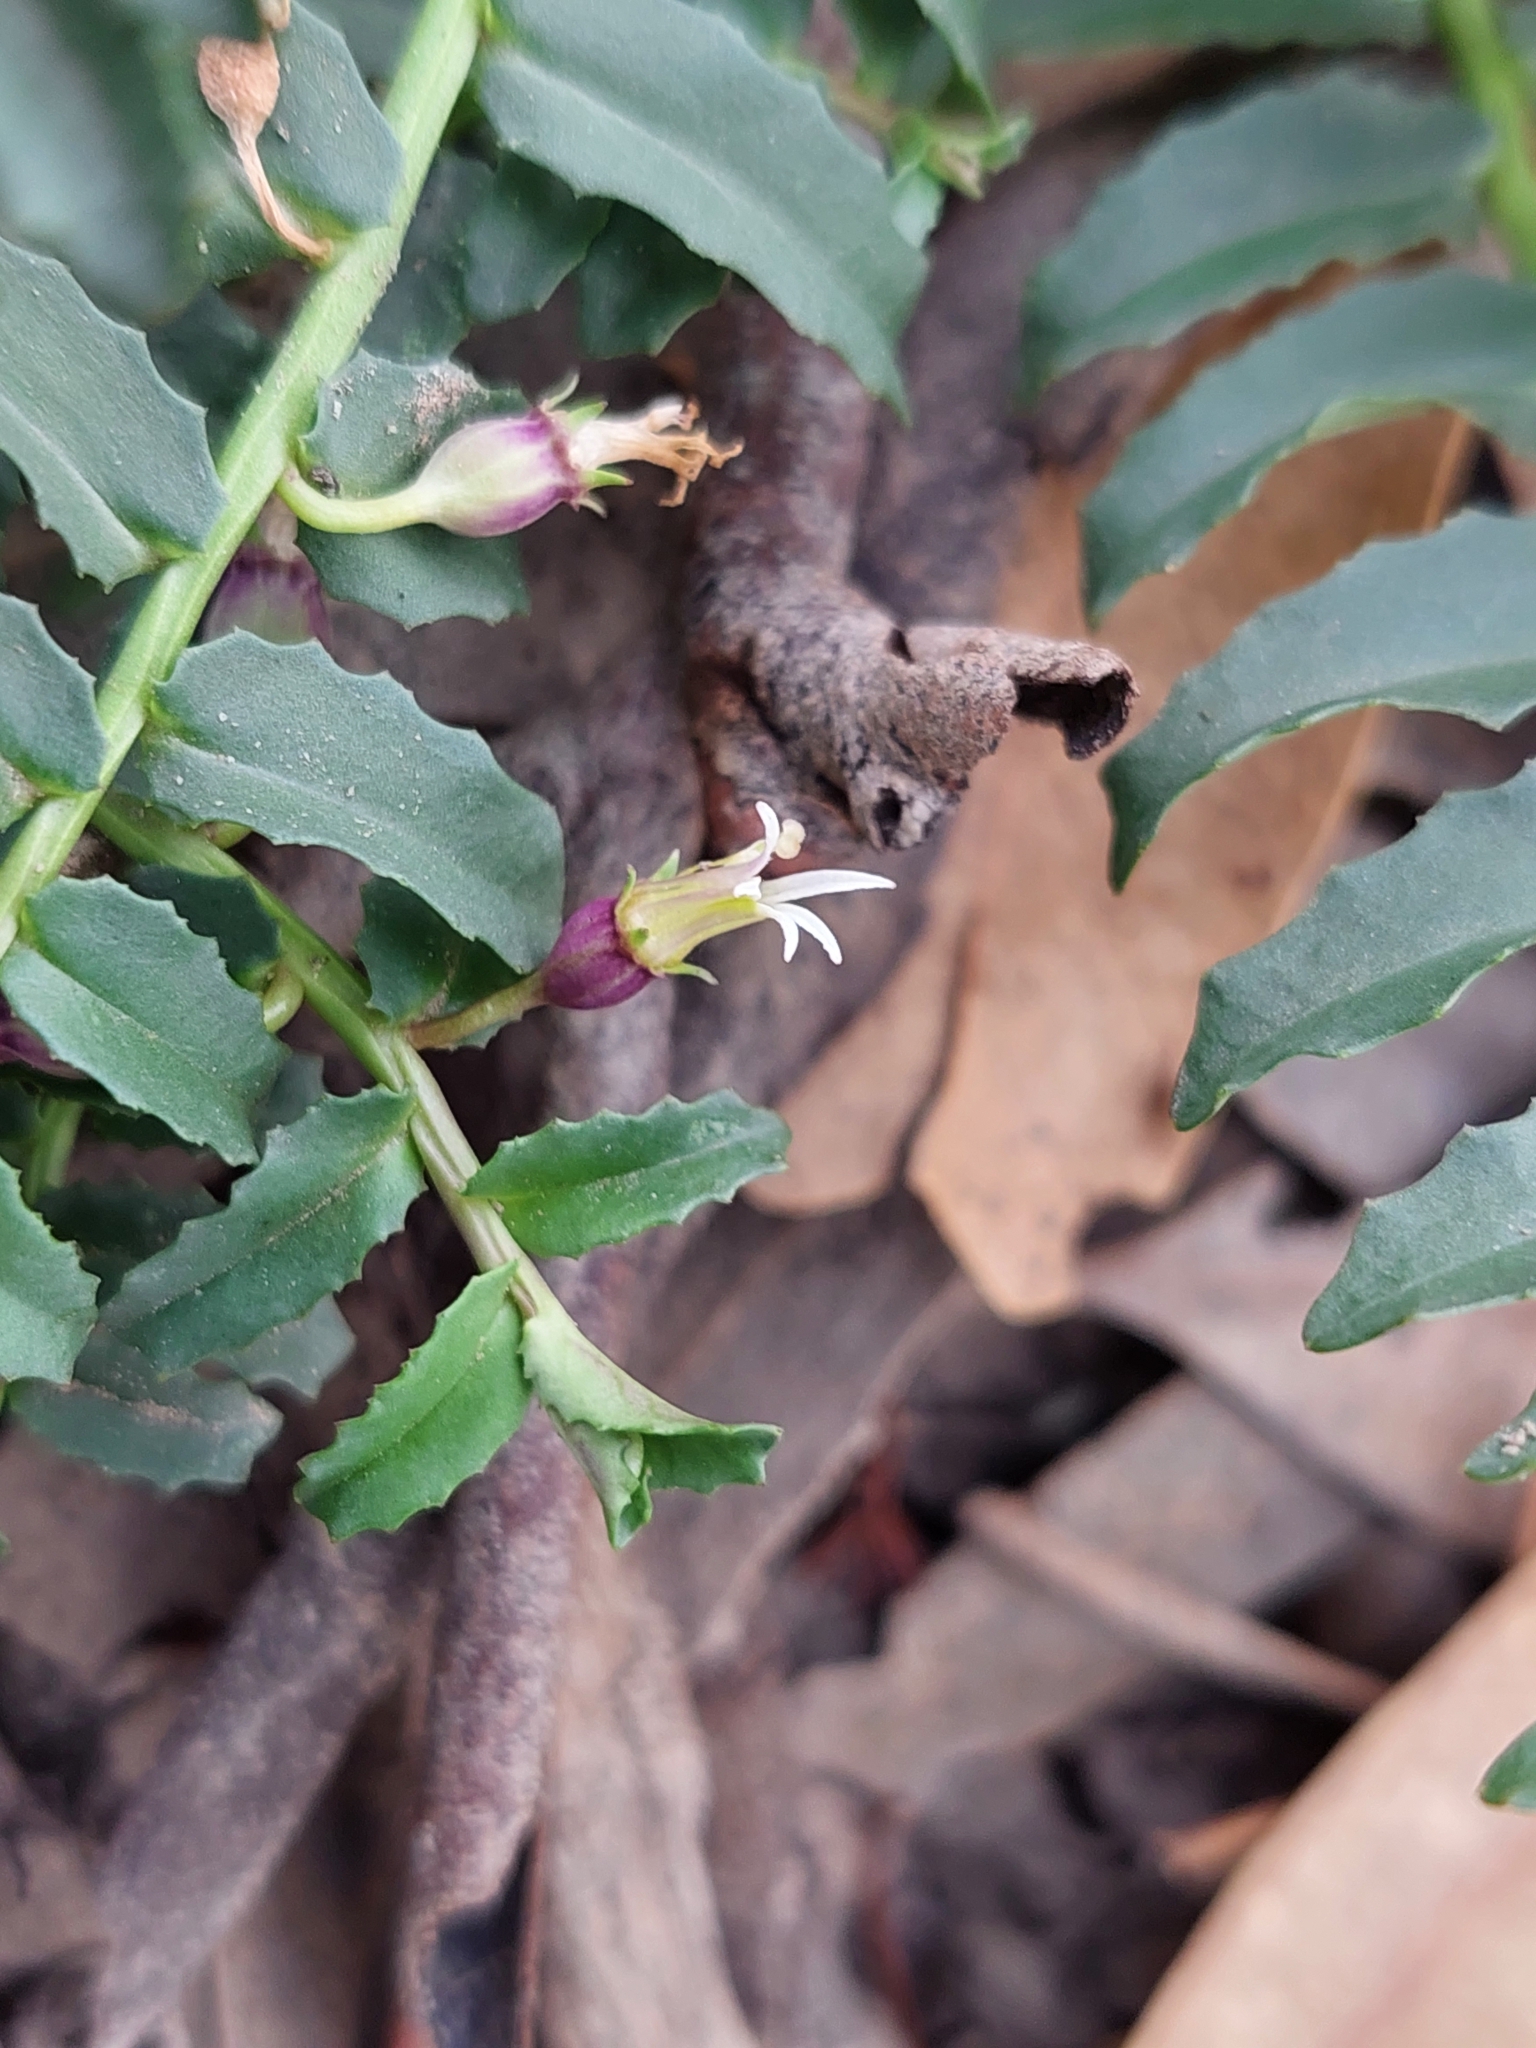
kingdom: Plantae
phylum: Tracheophyta
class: Magnoliopsida
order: Asterales
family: Campanulaceae
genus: Lobelia
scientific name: Lobelia concolor
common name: Poison pratia
